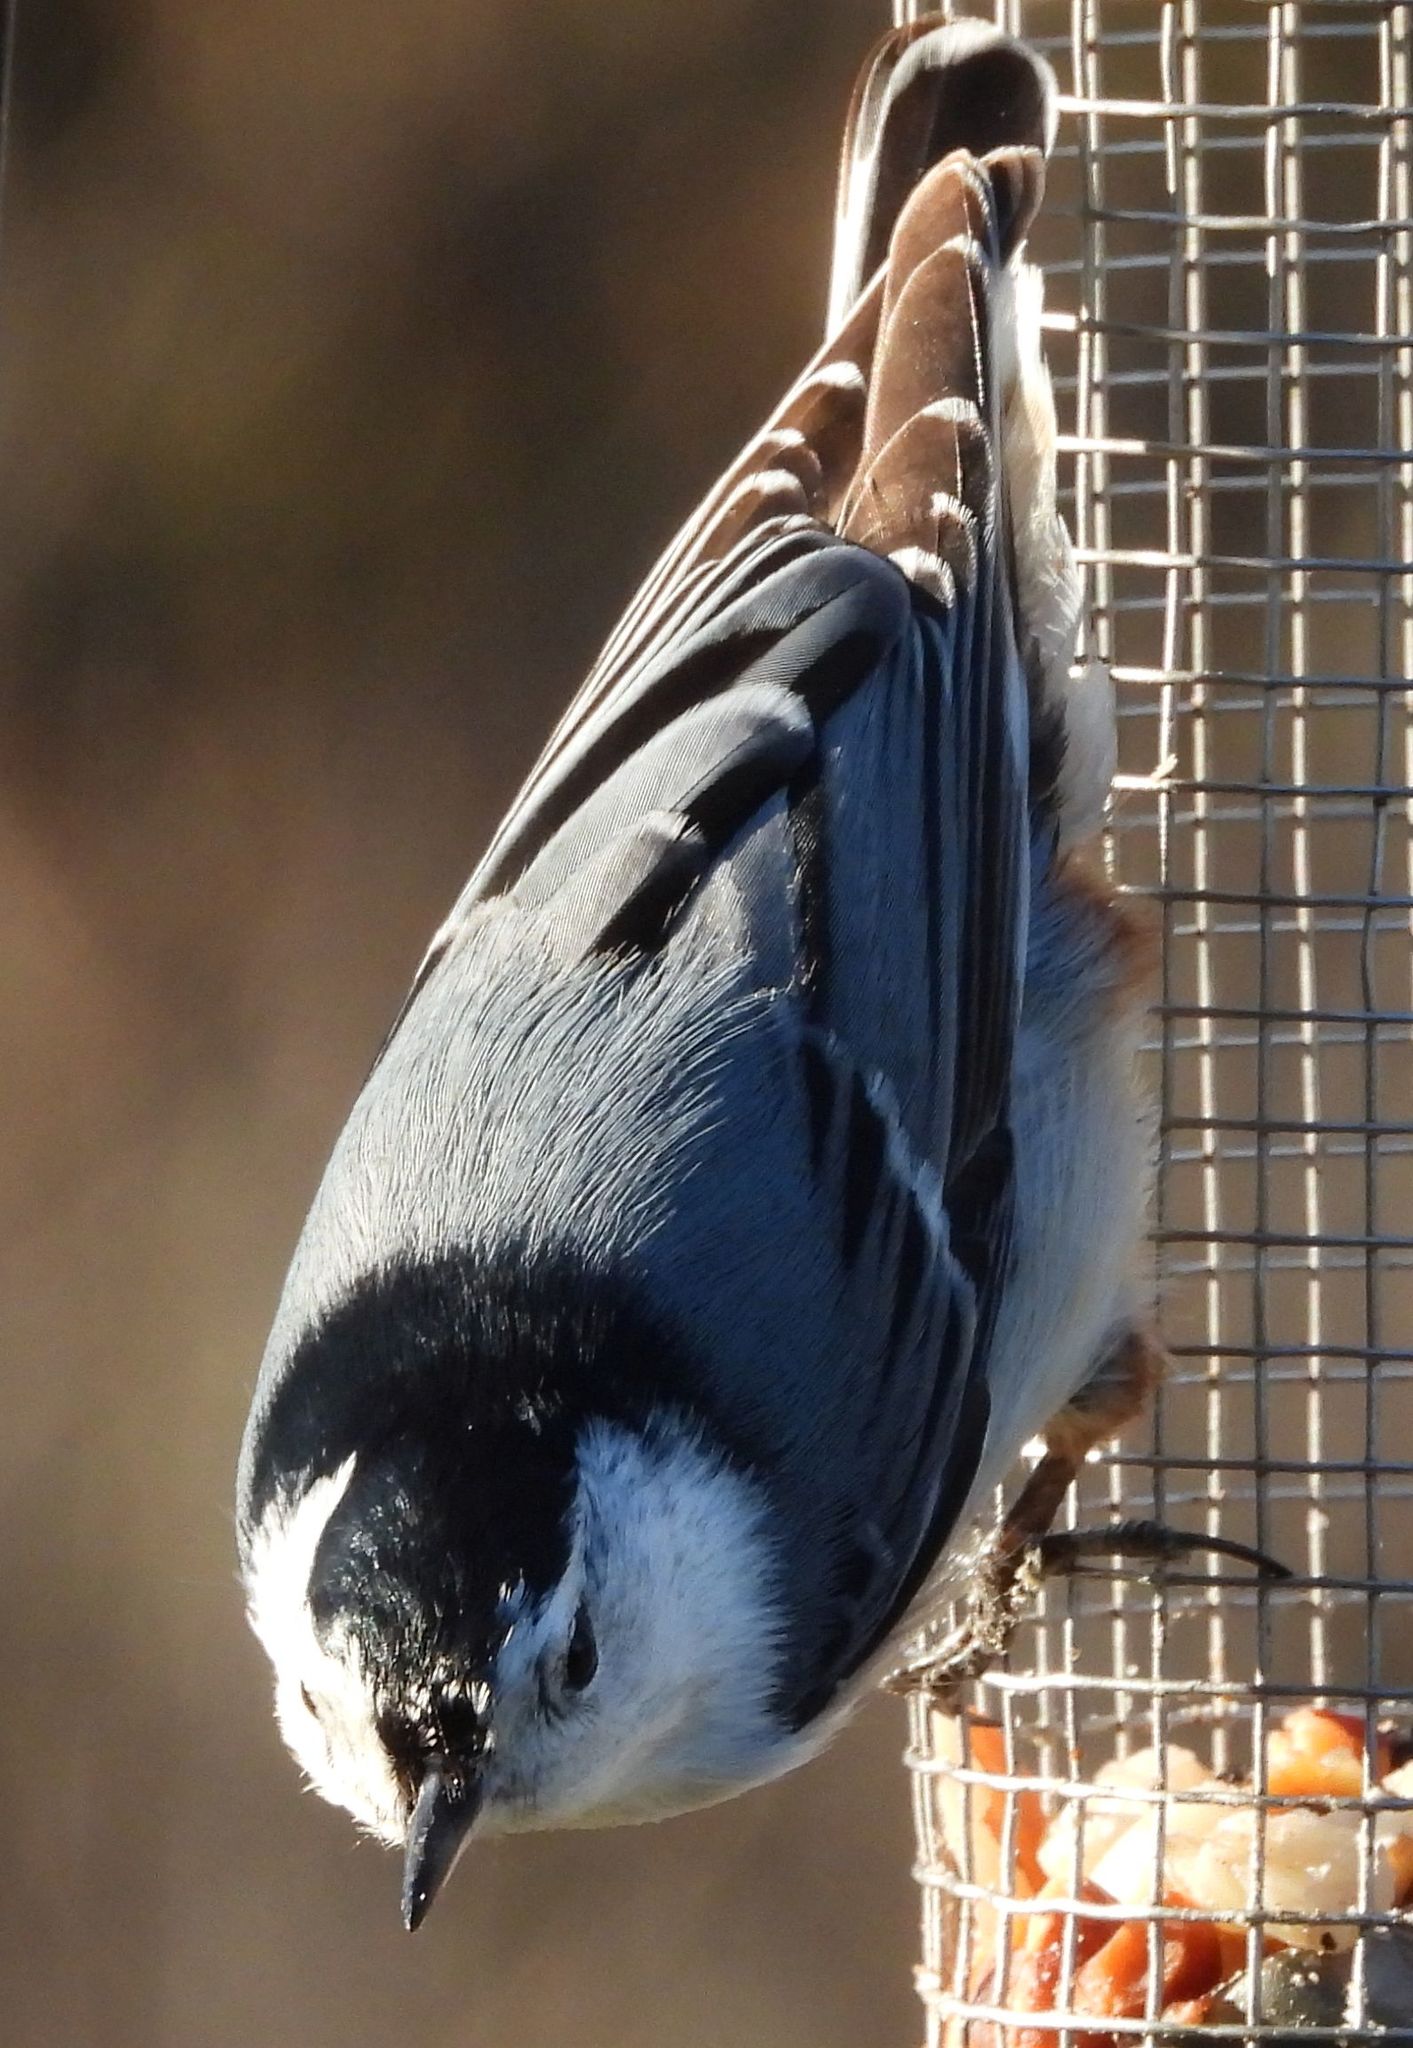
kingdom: Animalia
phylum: Chordata
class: Aves
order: Passeriformes
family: Sittidae
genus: Sitta
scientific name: Sitta carolinensis
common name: White-breasted nuthatch
